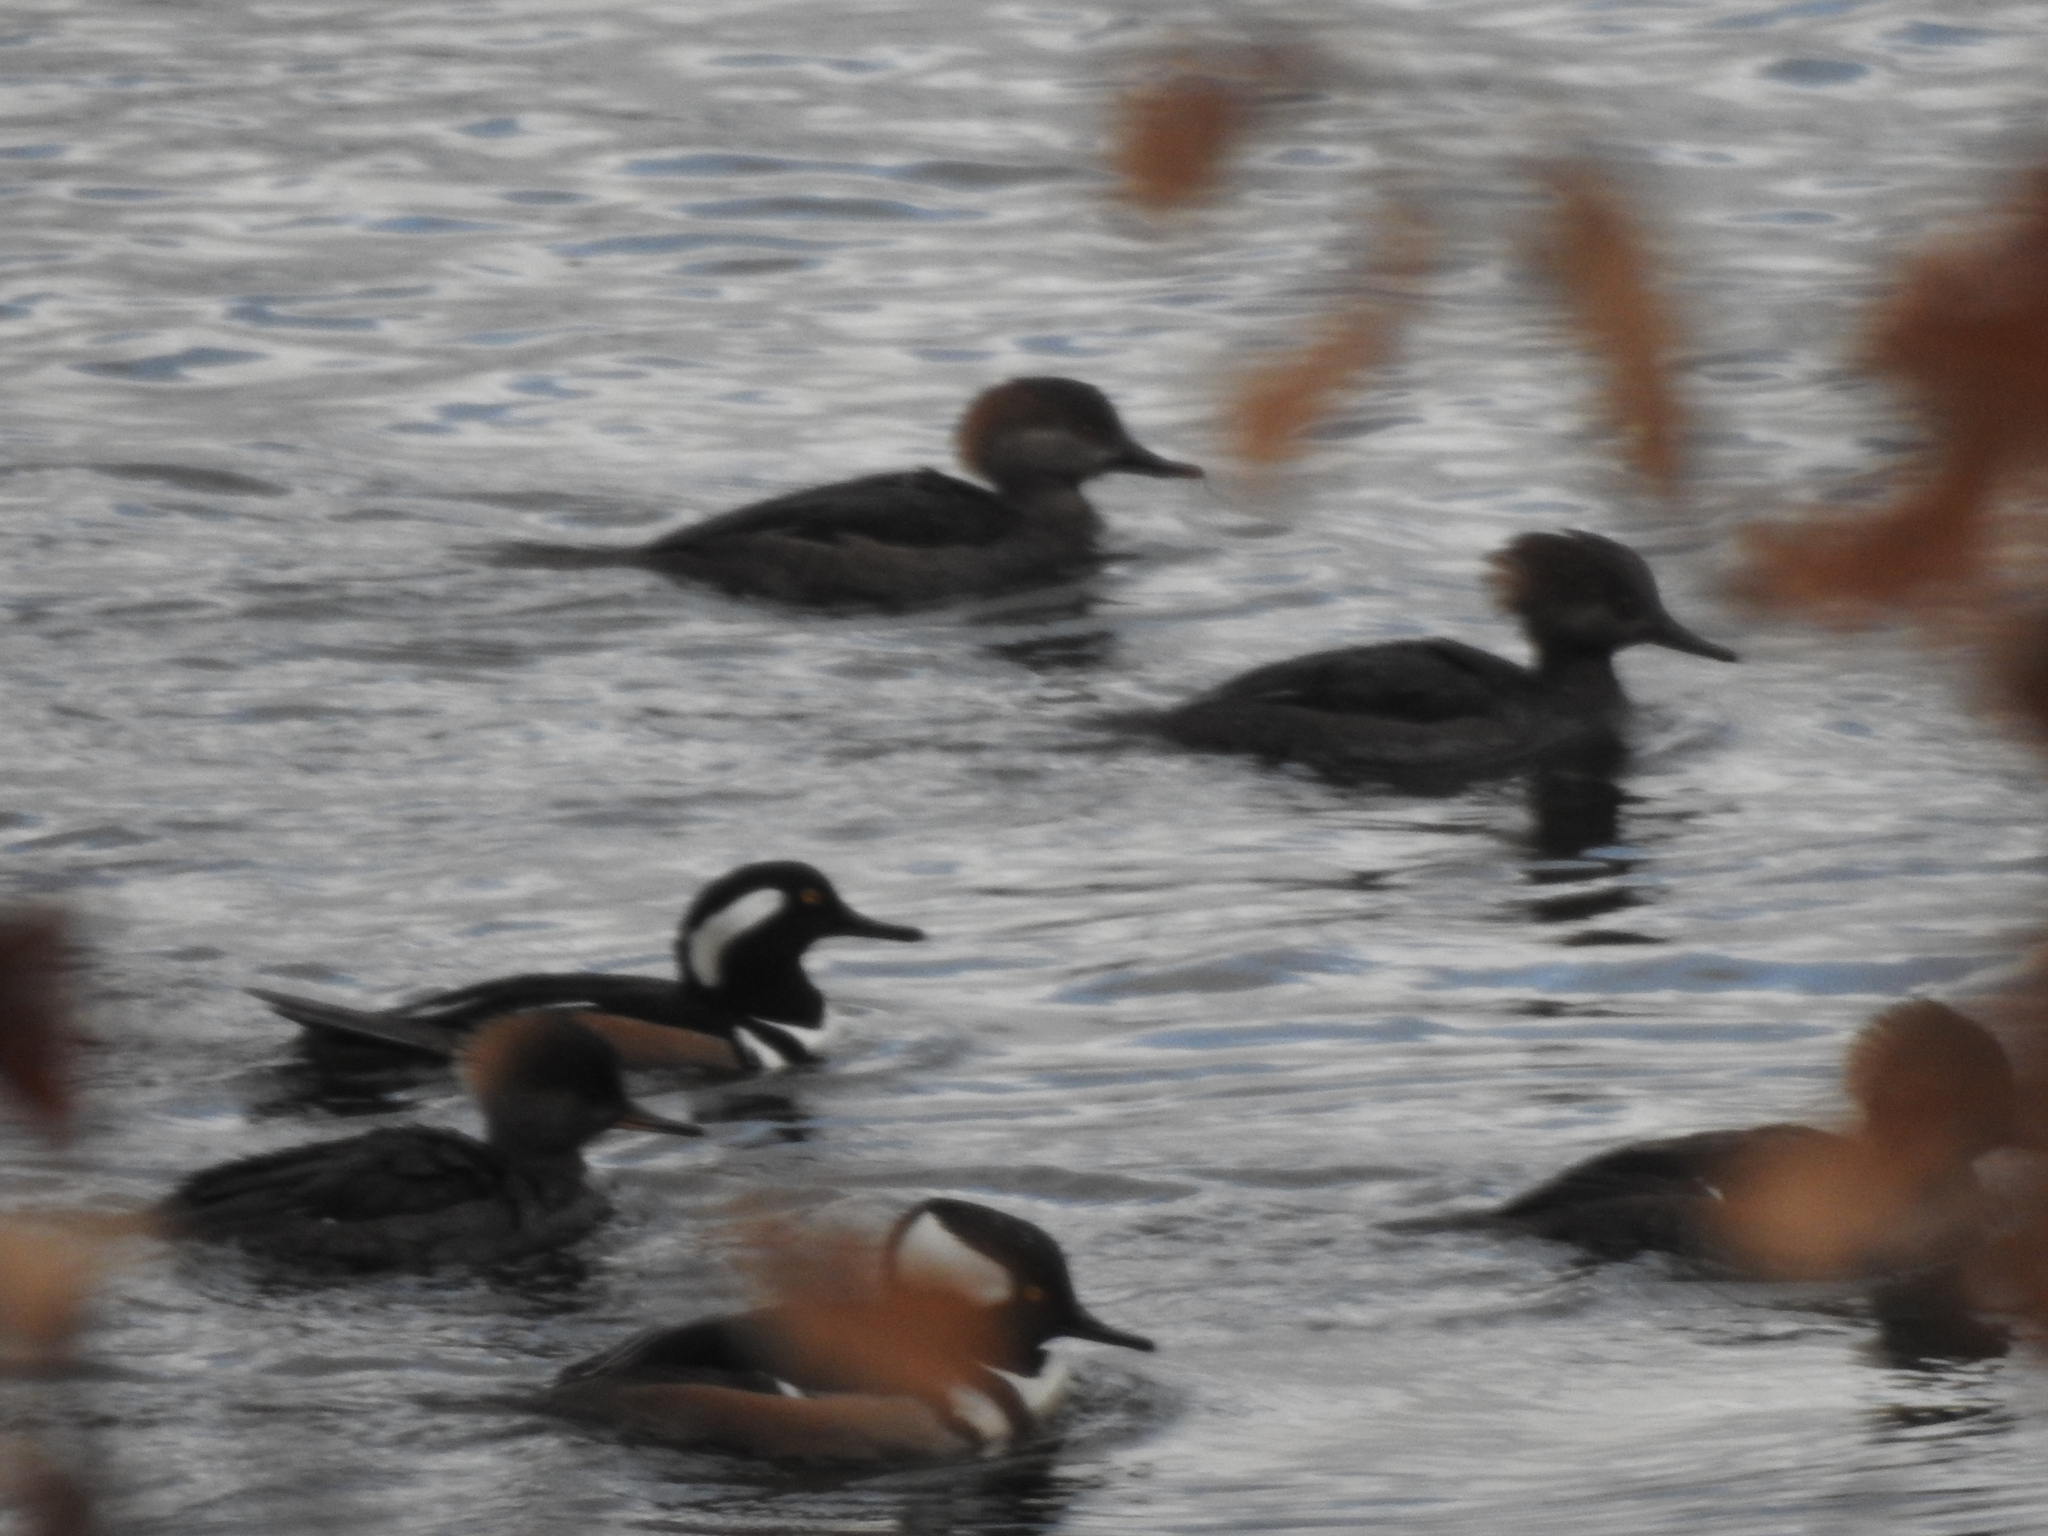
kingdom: Animalia
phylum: Chordata
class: Aves
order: Anseriformes
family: Anatidae
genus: Lophodytes
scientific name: Lophodytes cucullatus
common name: Hooded merganser
